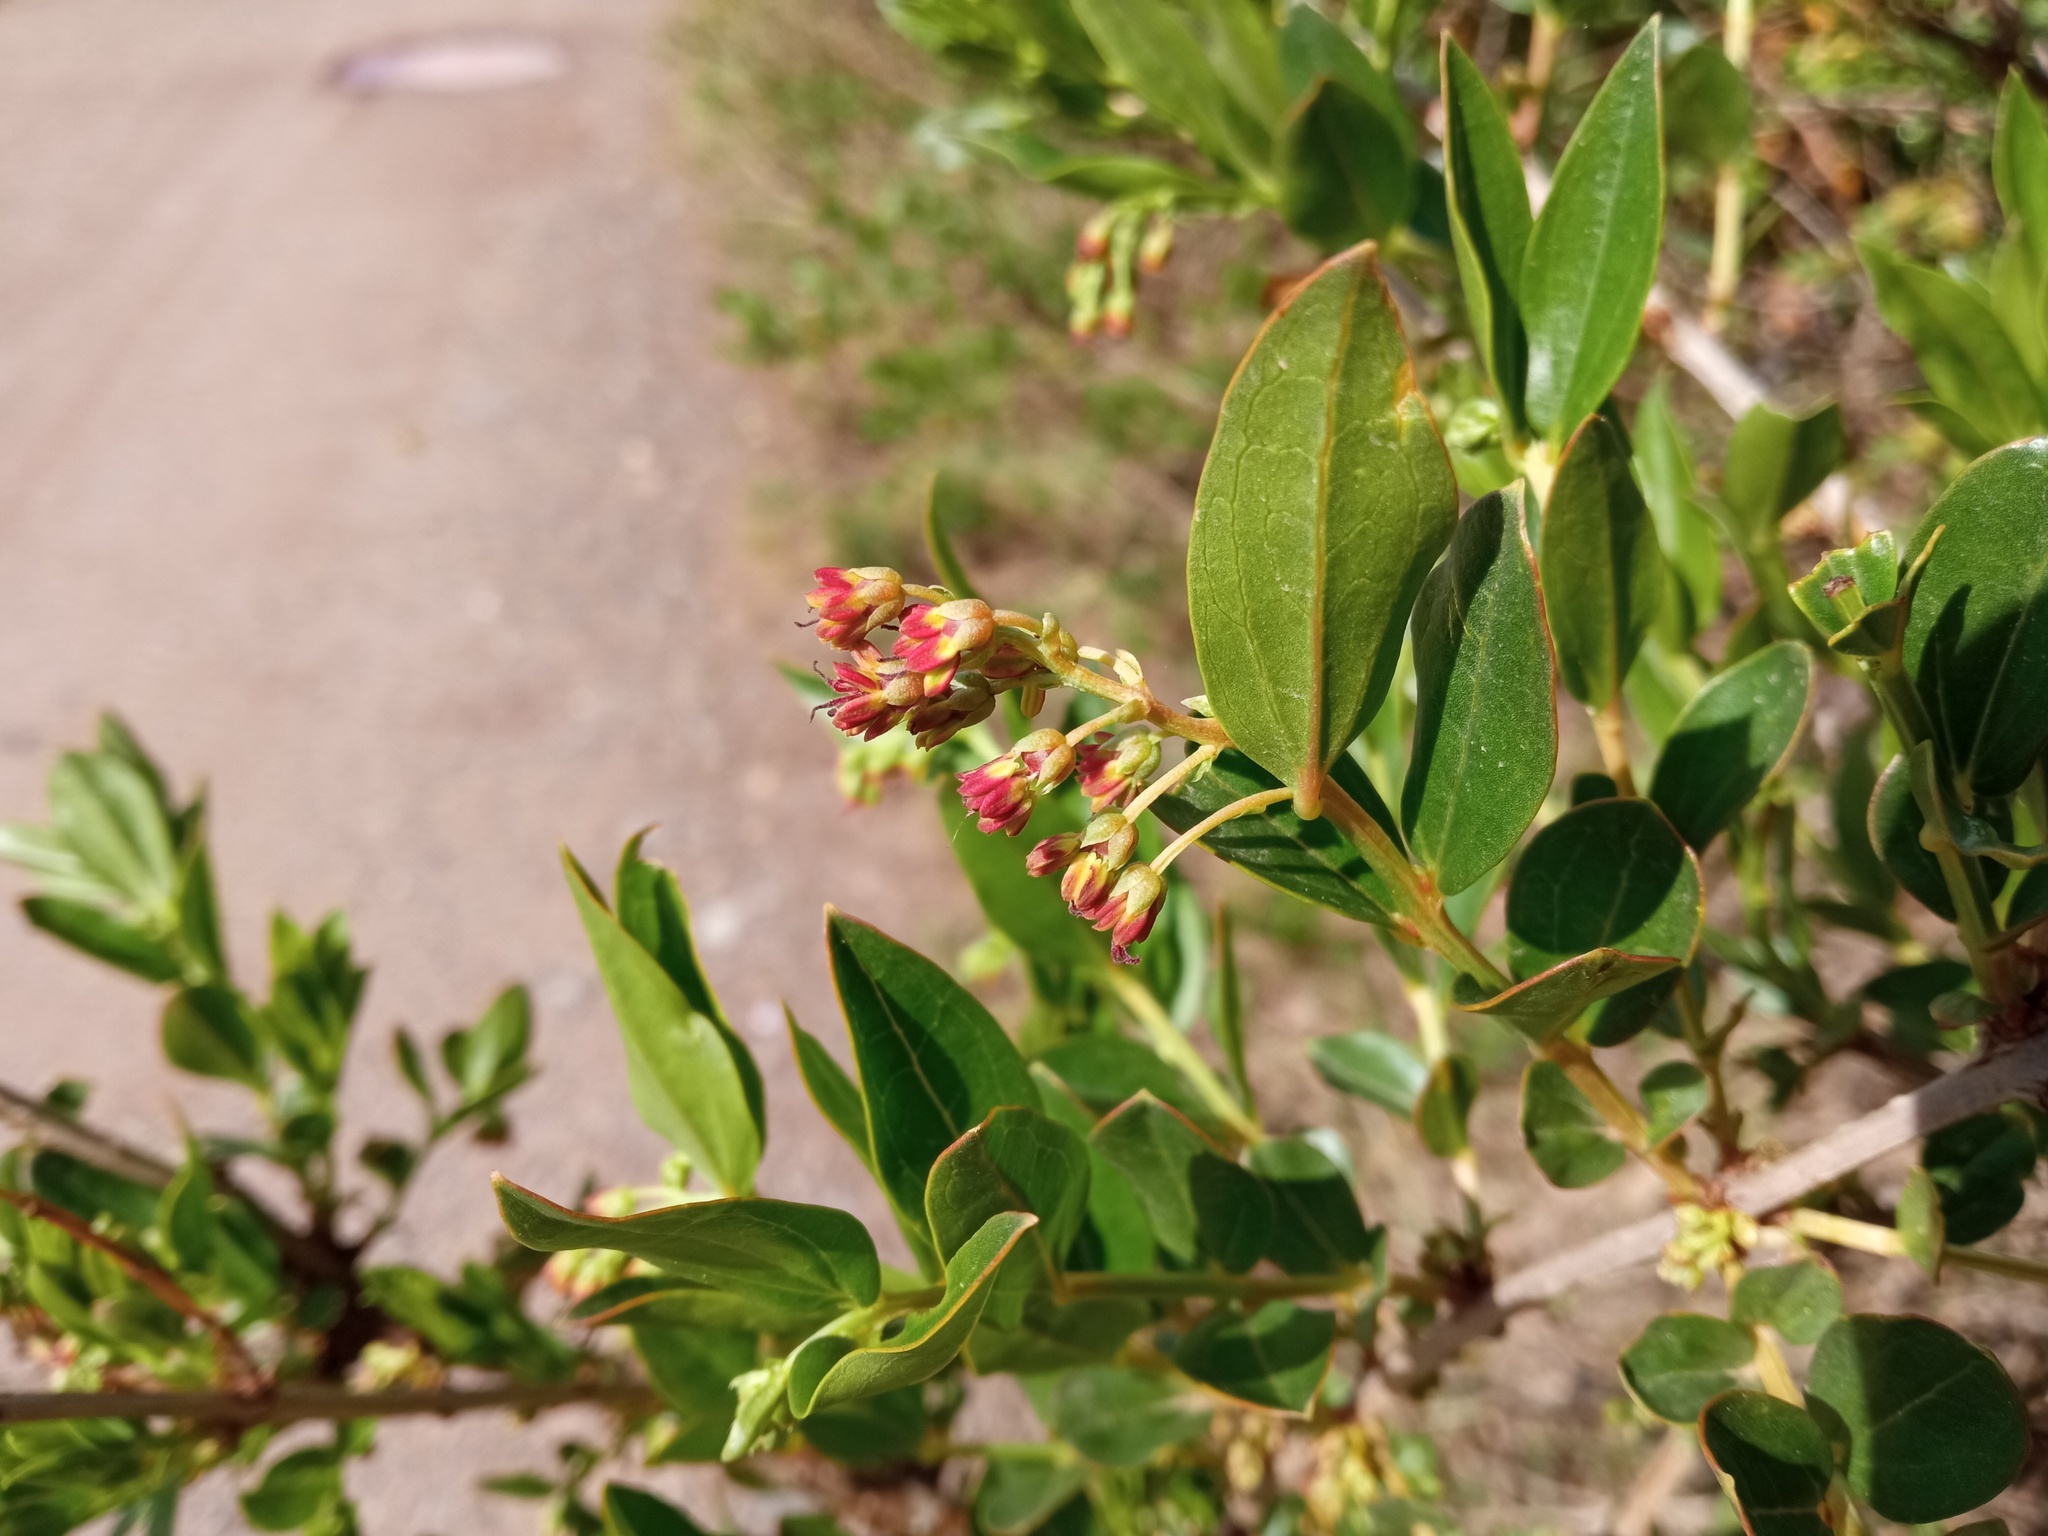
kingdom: Plantae
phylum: Tracheophyta
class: Magnoliopsida
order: Cucurbitales
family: Coriariaceae
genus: Coriaria
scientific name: Coriaria myrtifolia
